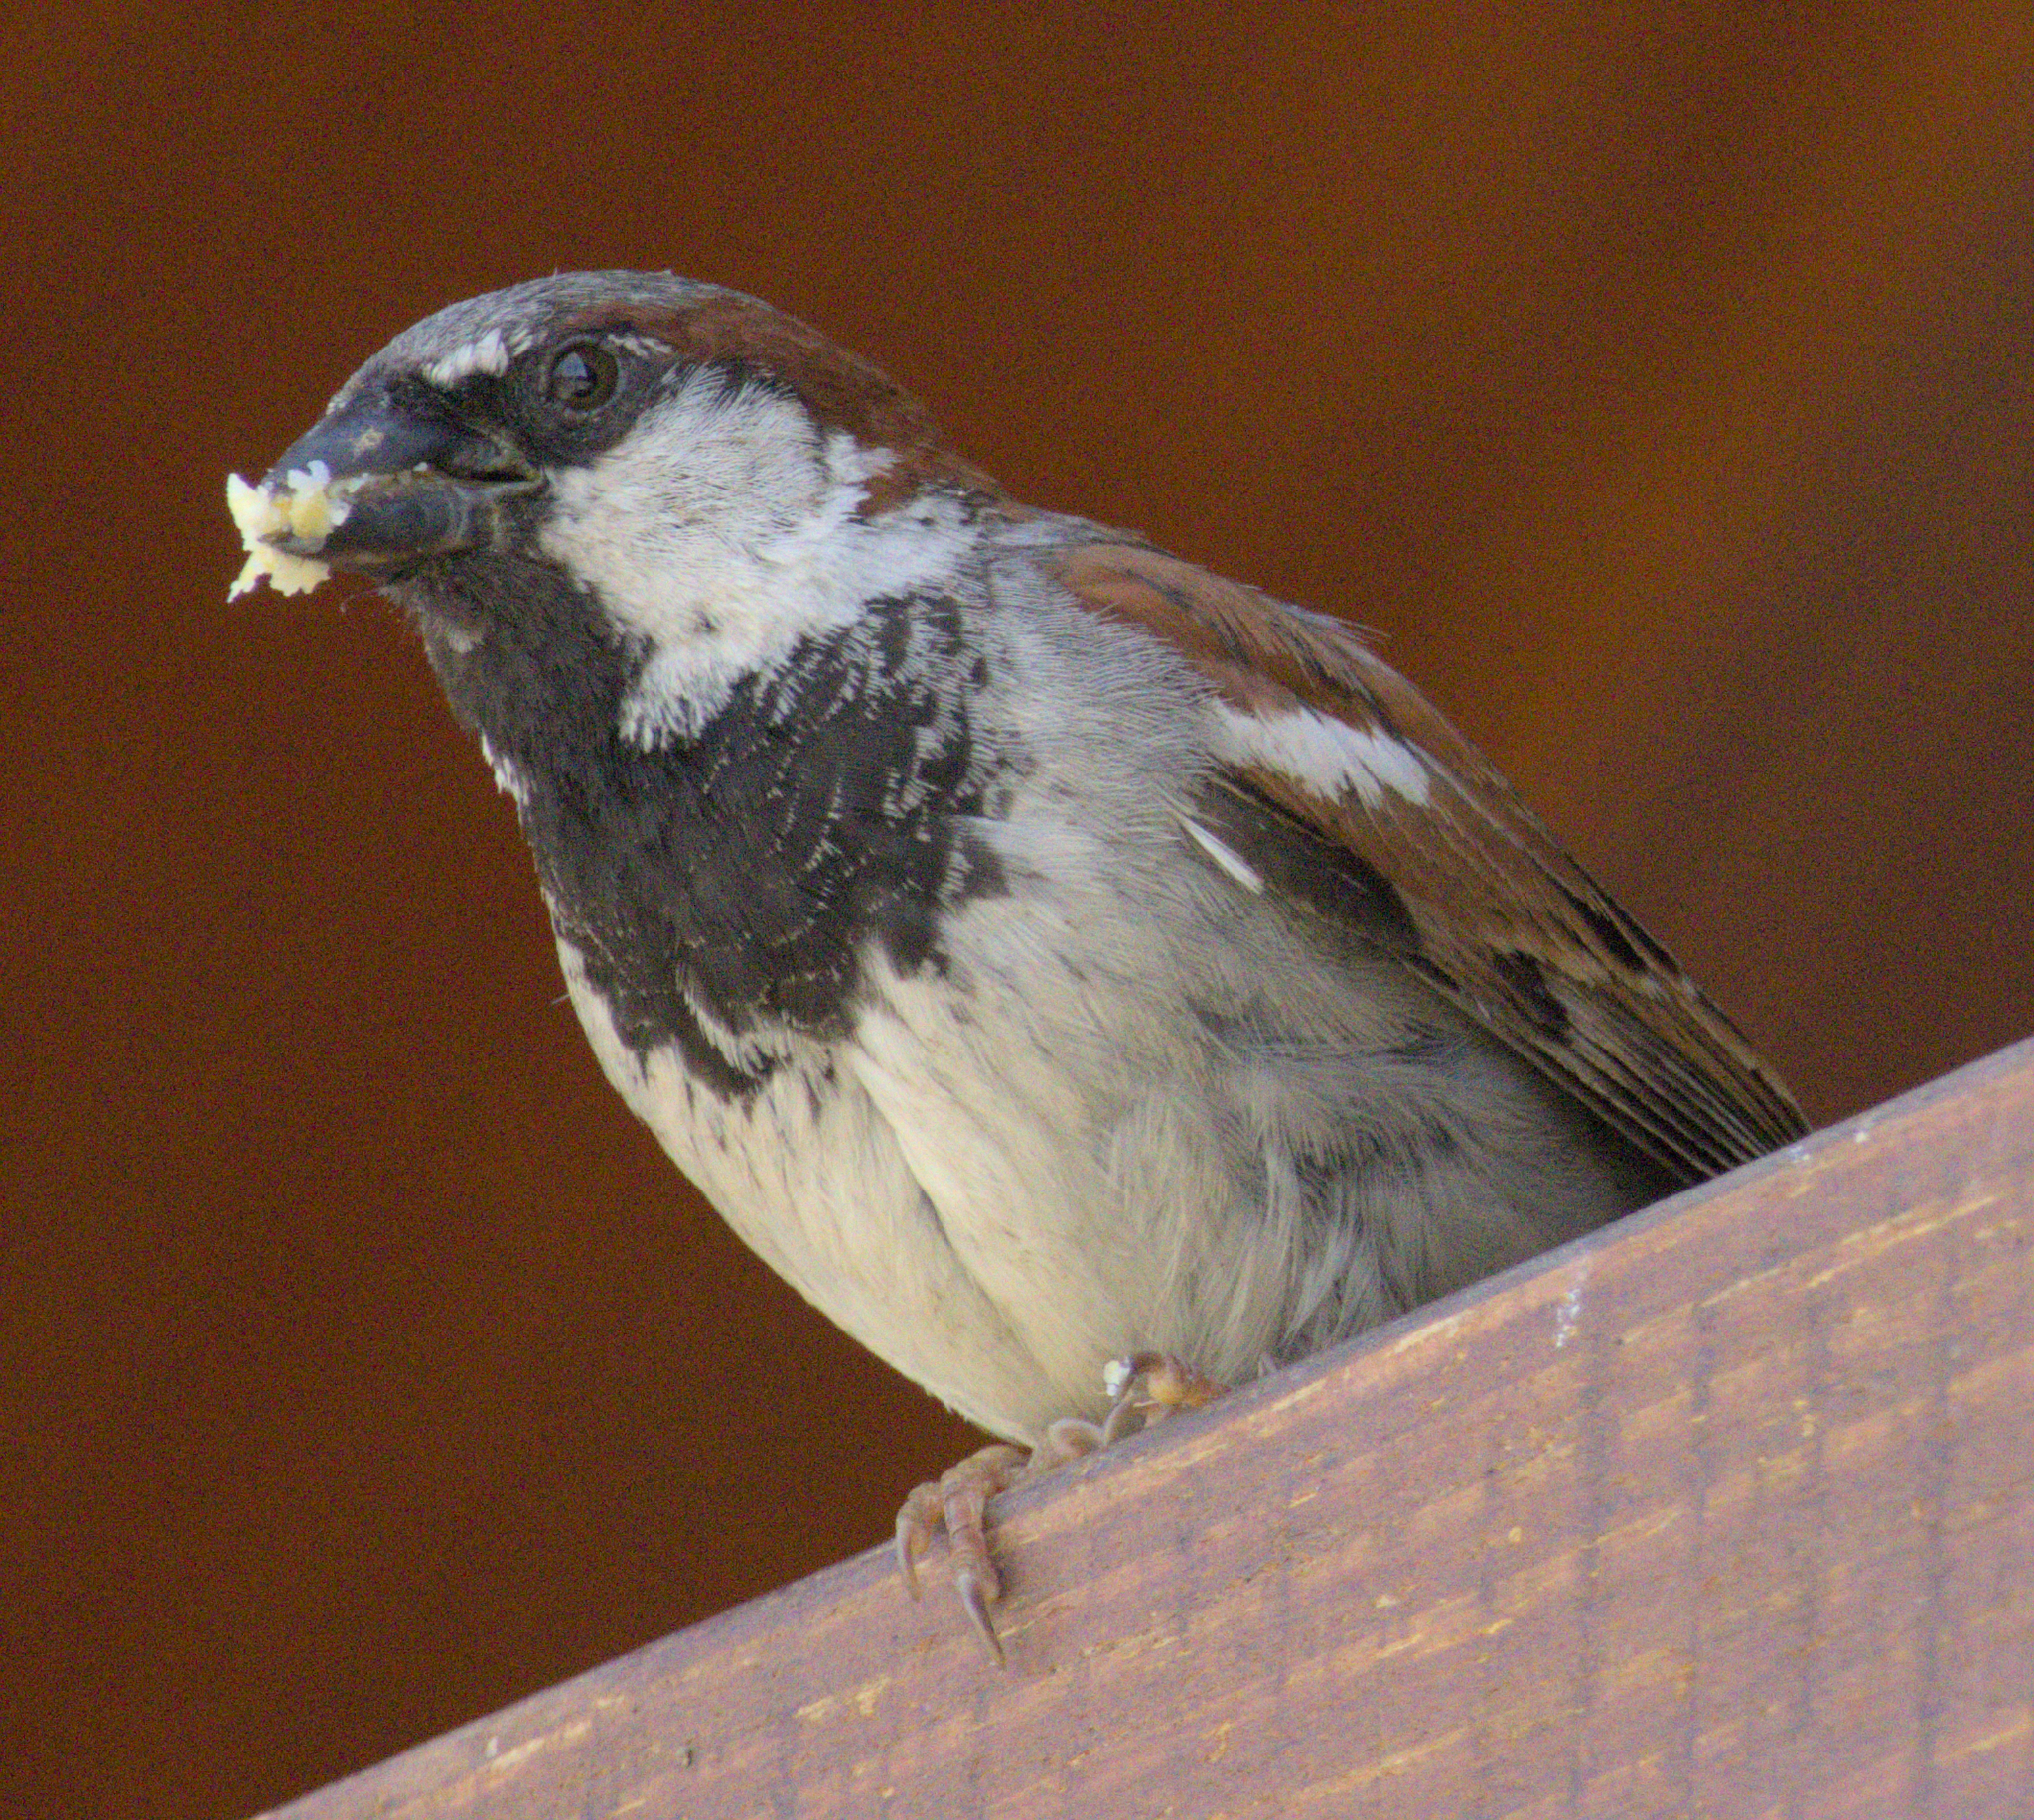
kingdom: Animalia
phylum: Chordata
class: Aves
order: Passeriformes
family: Passeridae
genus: Passer
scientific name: Passer domesticus
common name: House sparrow
